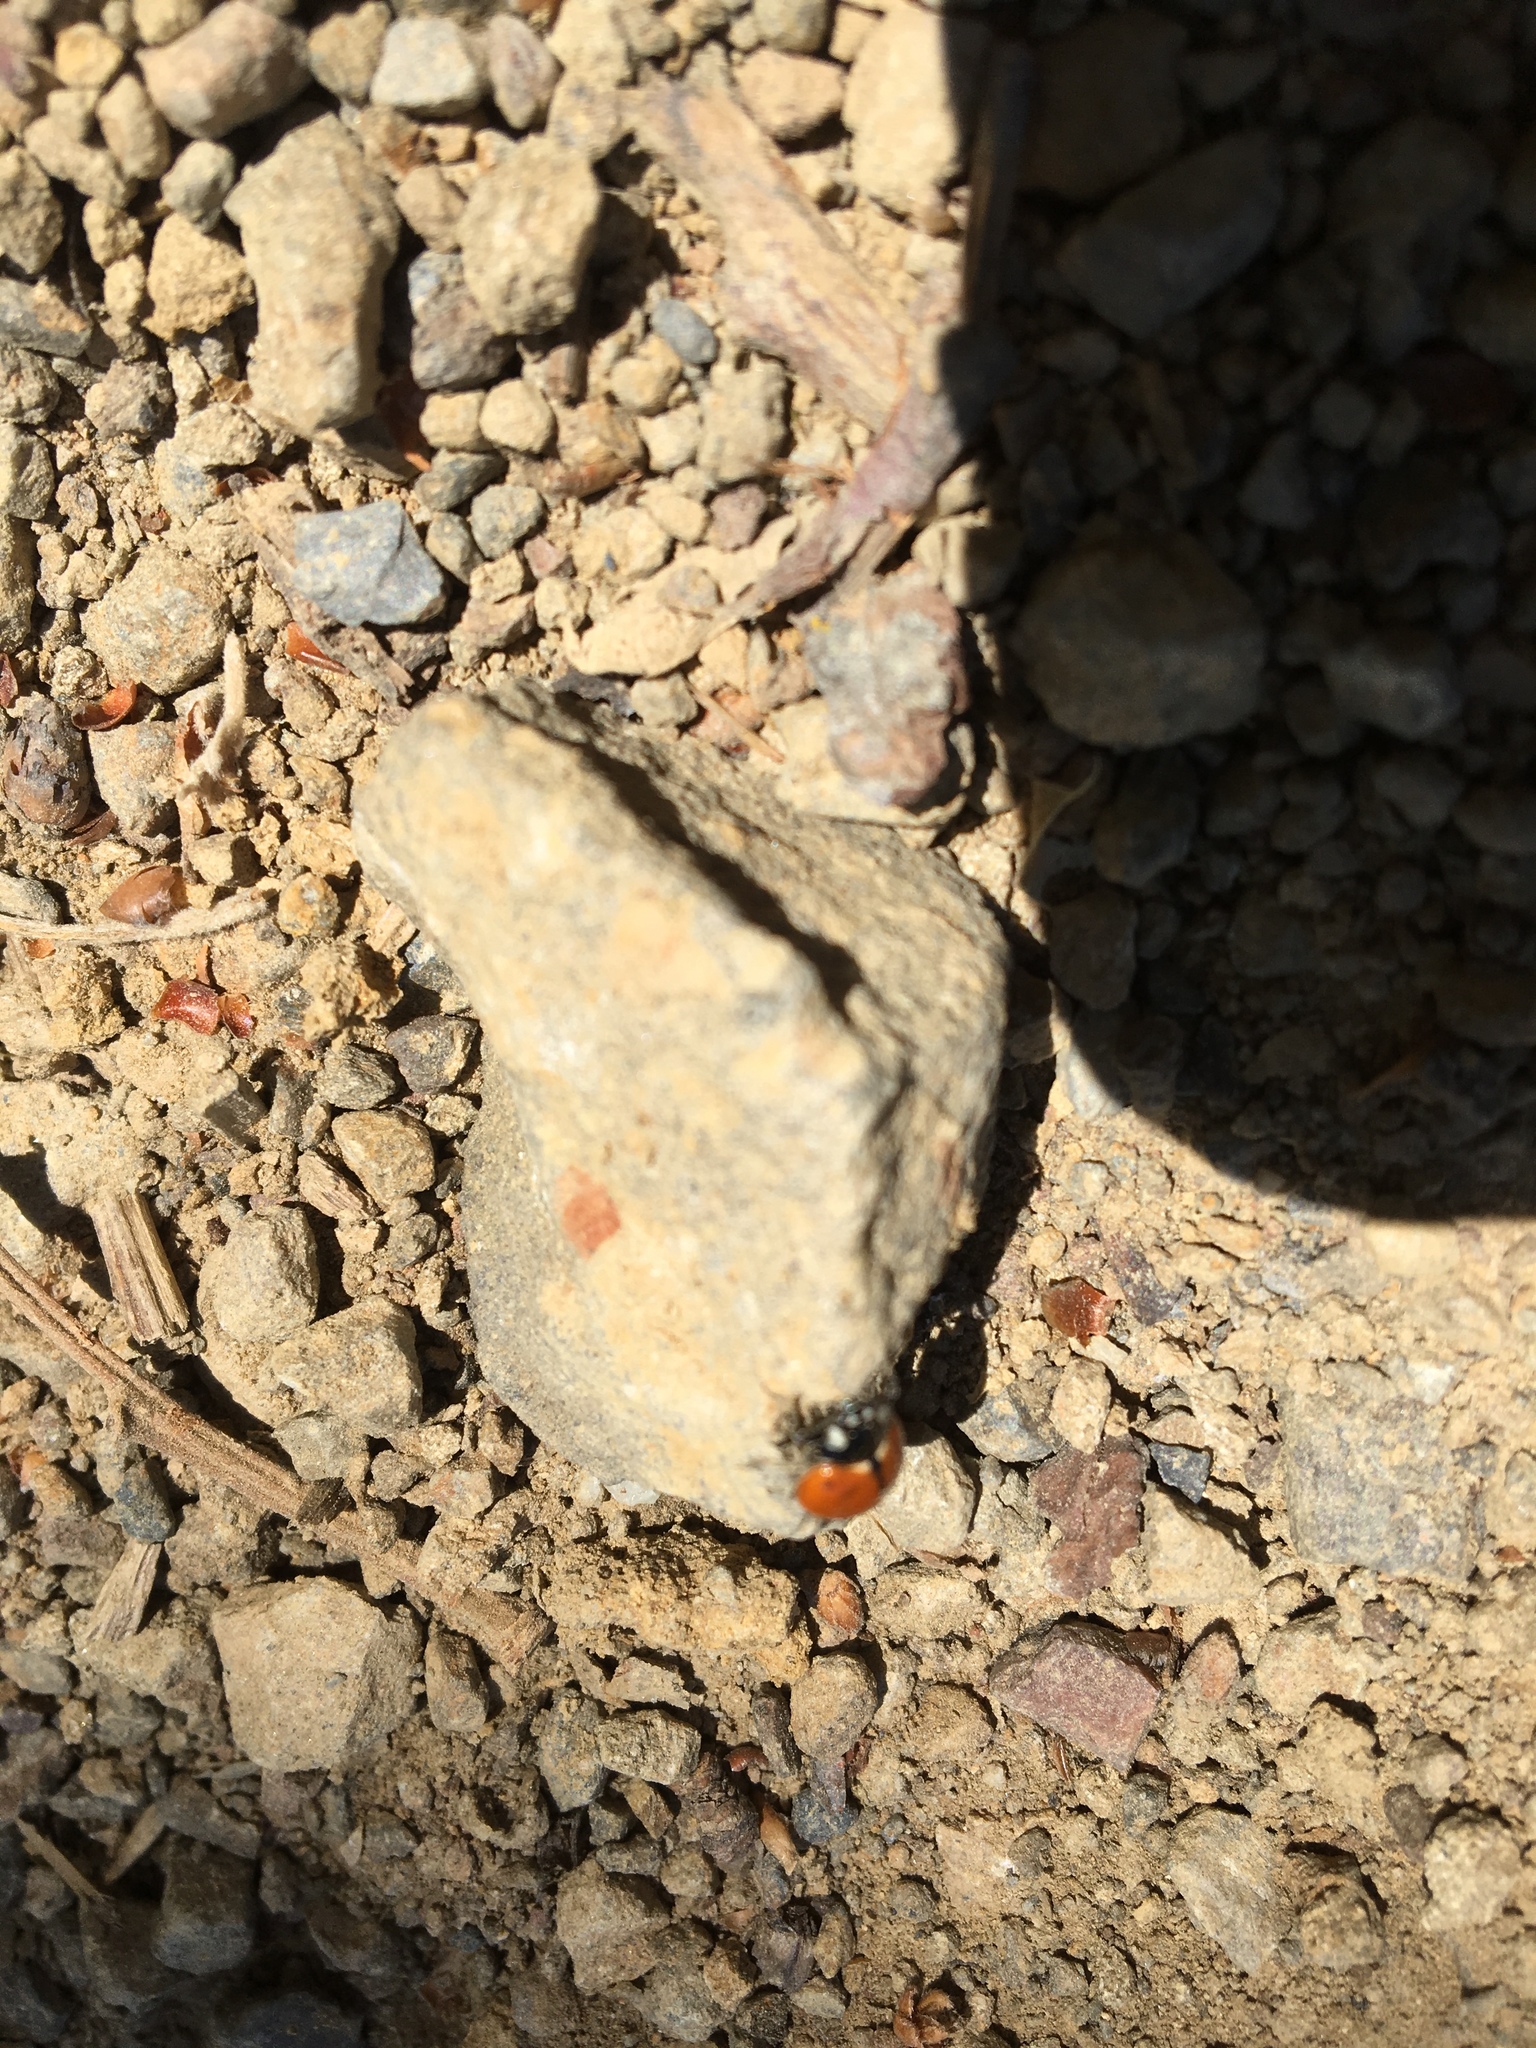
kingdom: Animalia
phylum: Arthropoda
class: Insecta
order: Coleoptera
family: Coccinellidae
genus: Coccinella
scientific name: Coccinella californica
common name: Lady beetle
